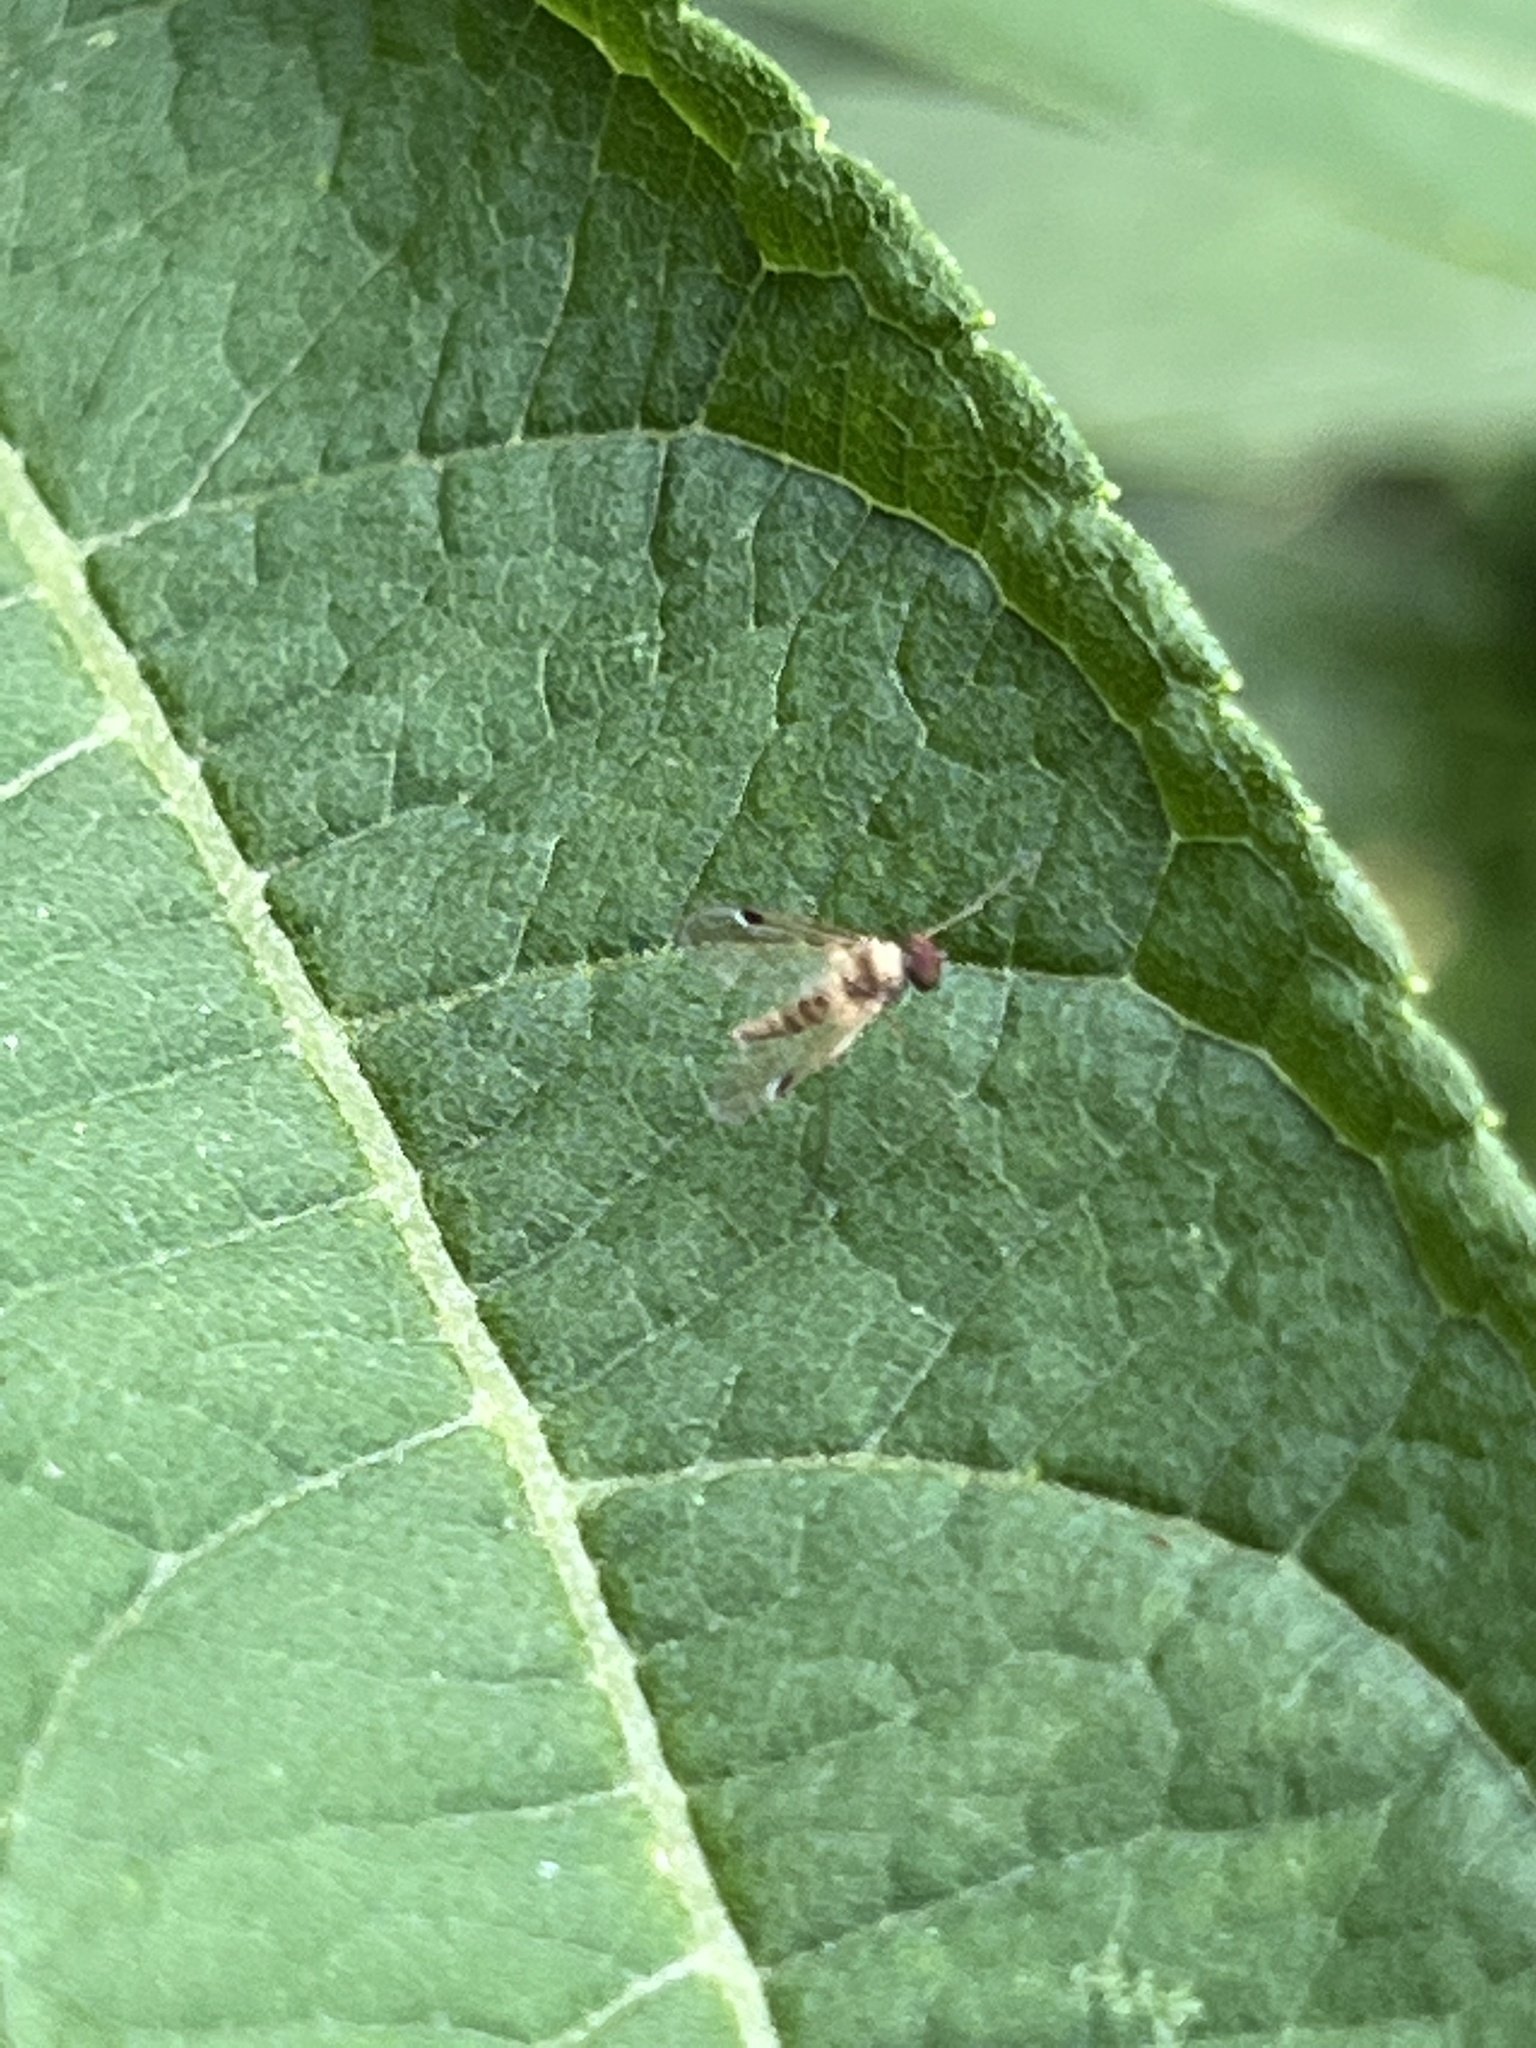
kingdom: Animalia
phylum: Arthropoda
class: Insecta
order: Diptera
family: Rhagionidae
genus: Chrysopilus
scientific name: Chrysopilus modestus
